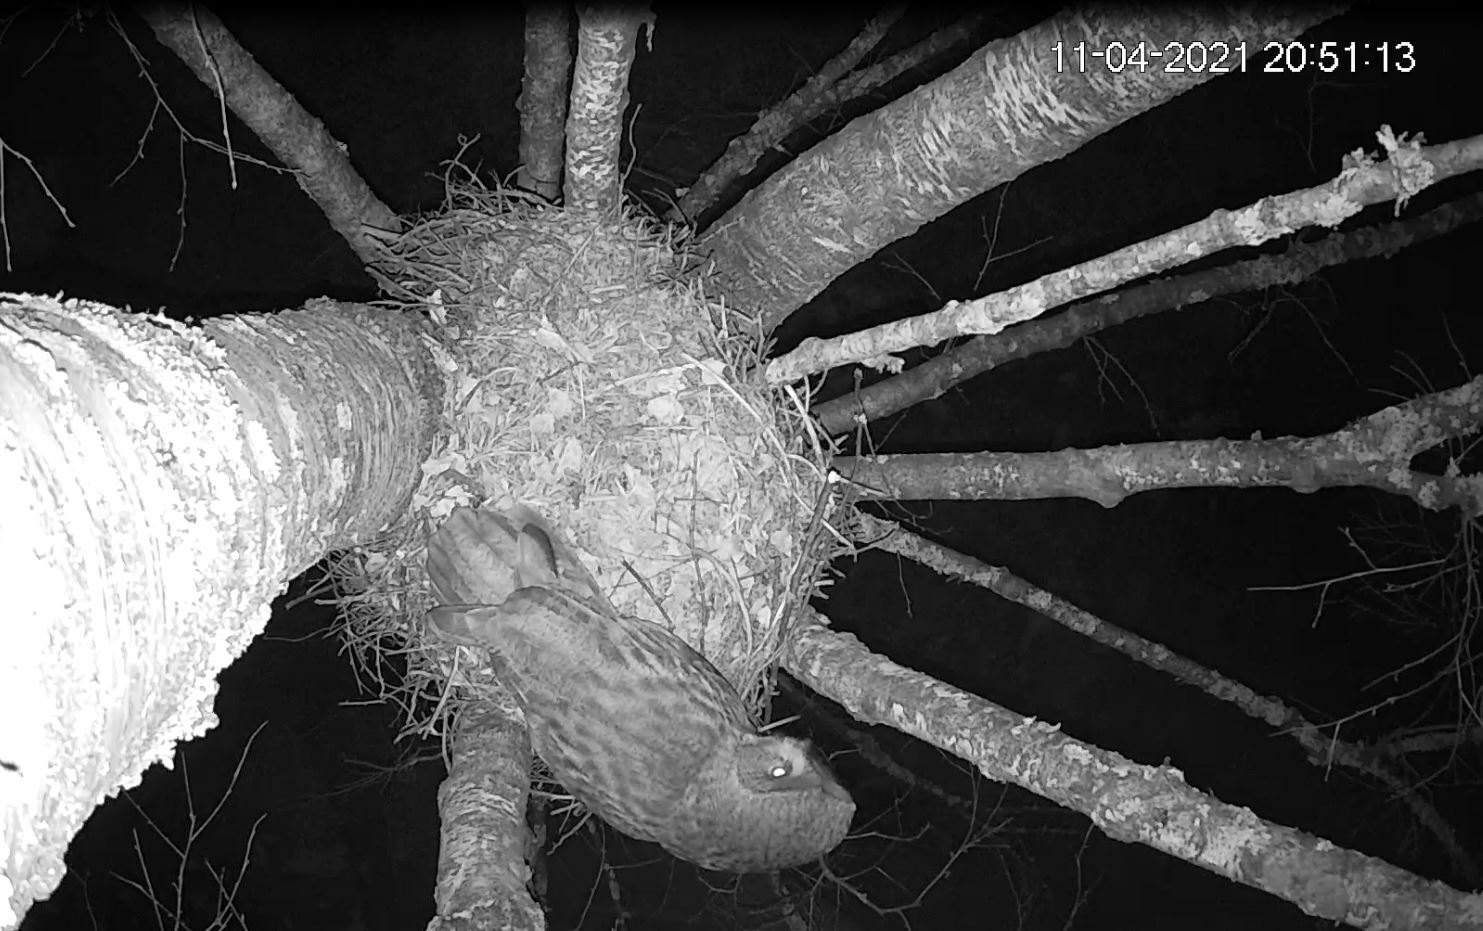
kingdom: Animalia
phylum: Chordata
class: Aves
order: Strigiformes
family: Strigidae
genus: Strix
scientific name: Strix nebulosa
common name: Great grey owl
